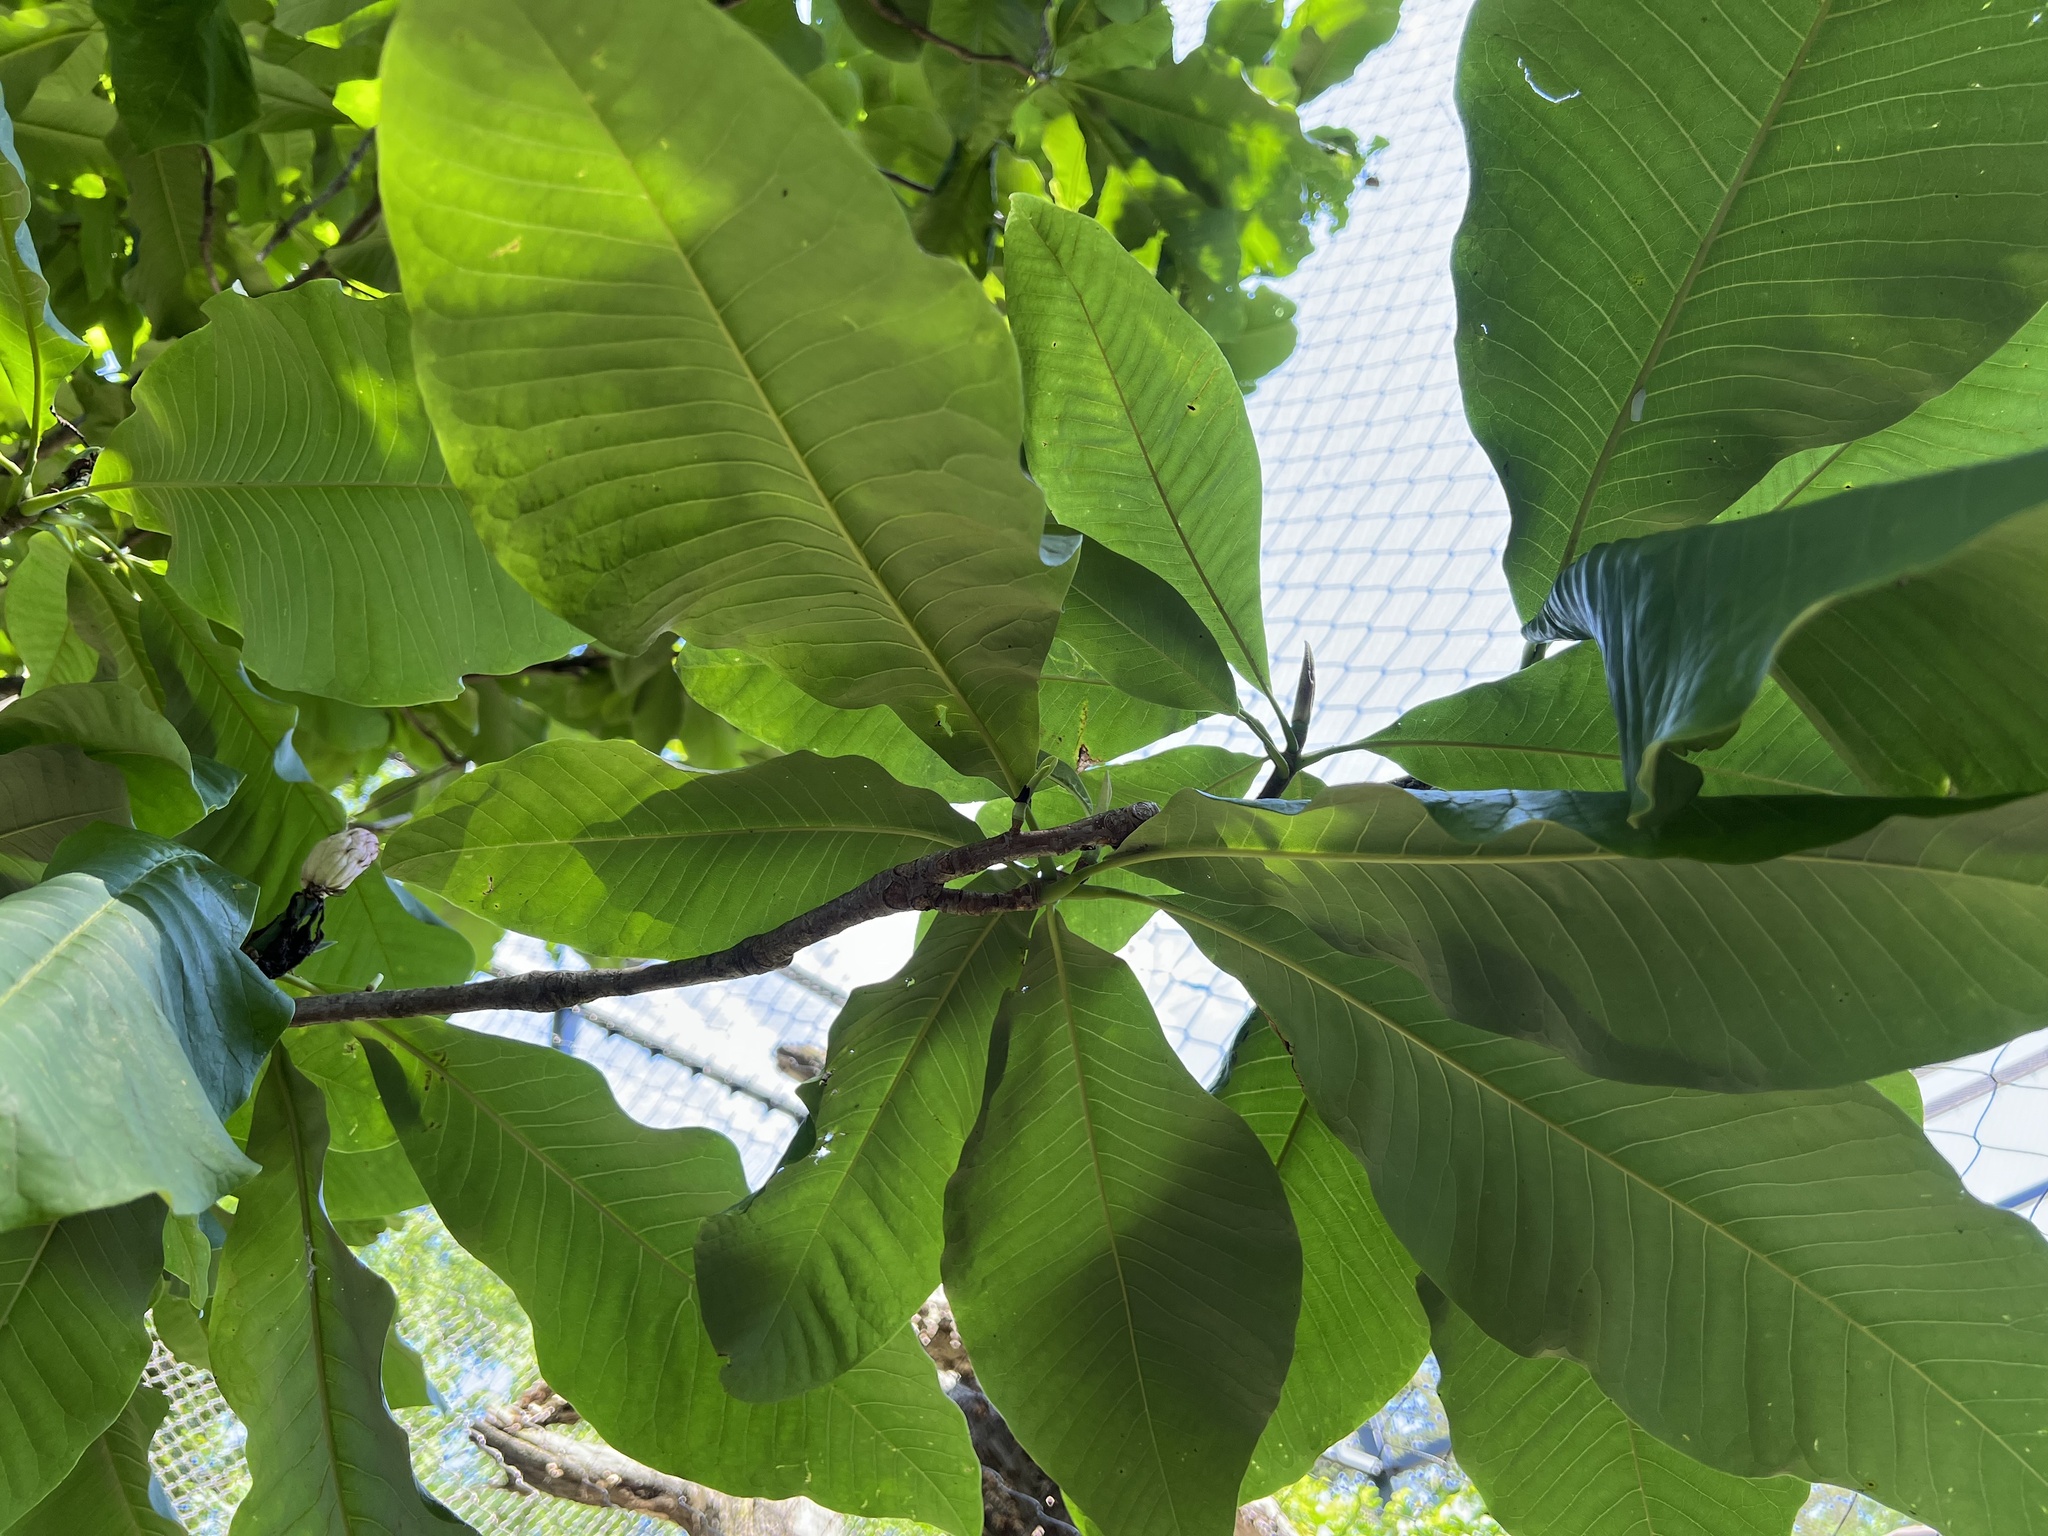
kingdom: Plantae
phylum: Tracheophyta
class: Magnoliopsida
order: Magnoliales
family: Magnoliaceae
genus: Magnolia
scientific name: Magnolia tripetala
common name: Umbrella magnolia
